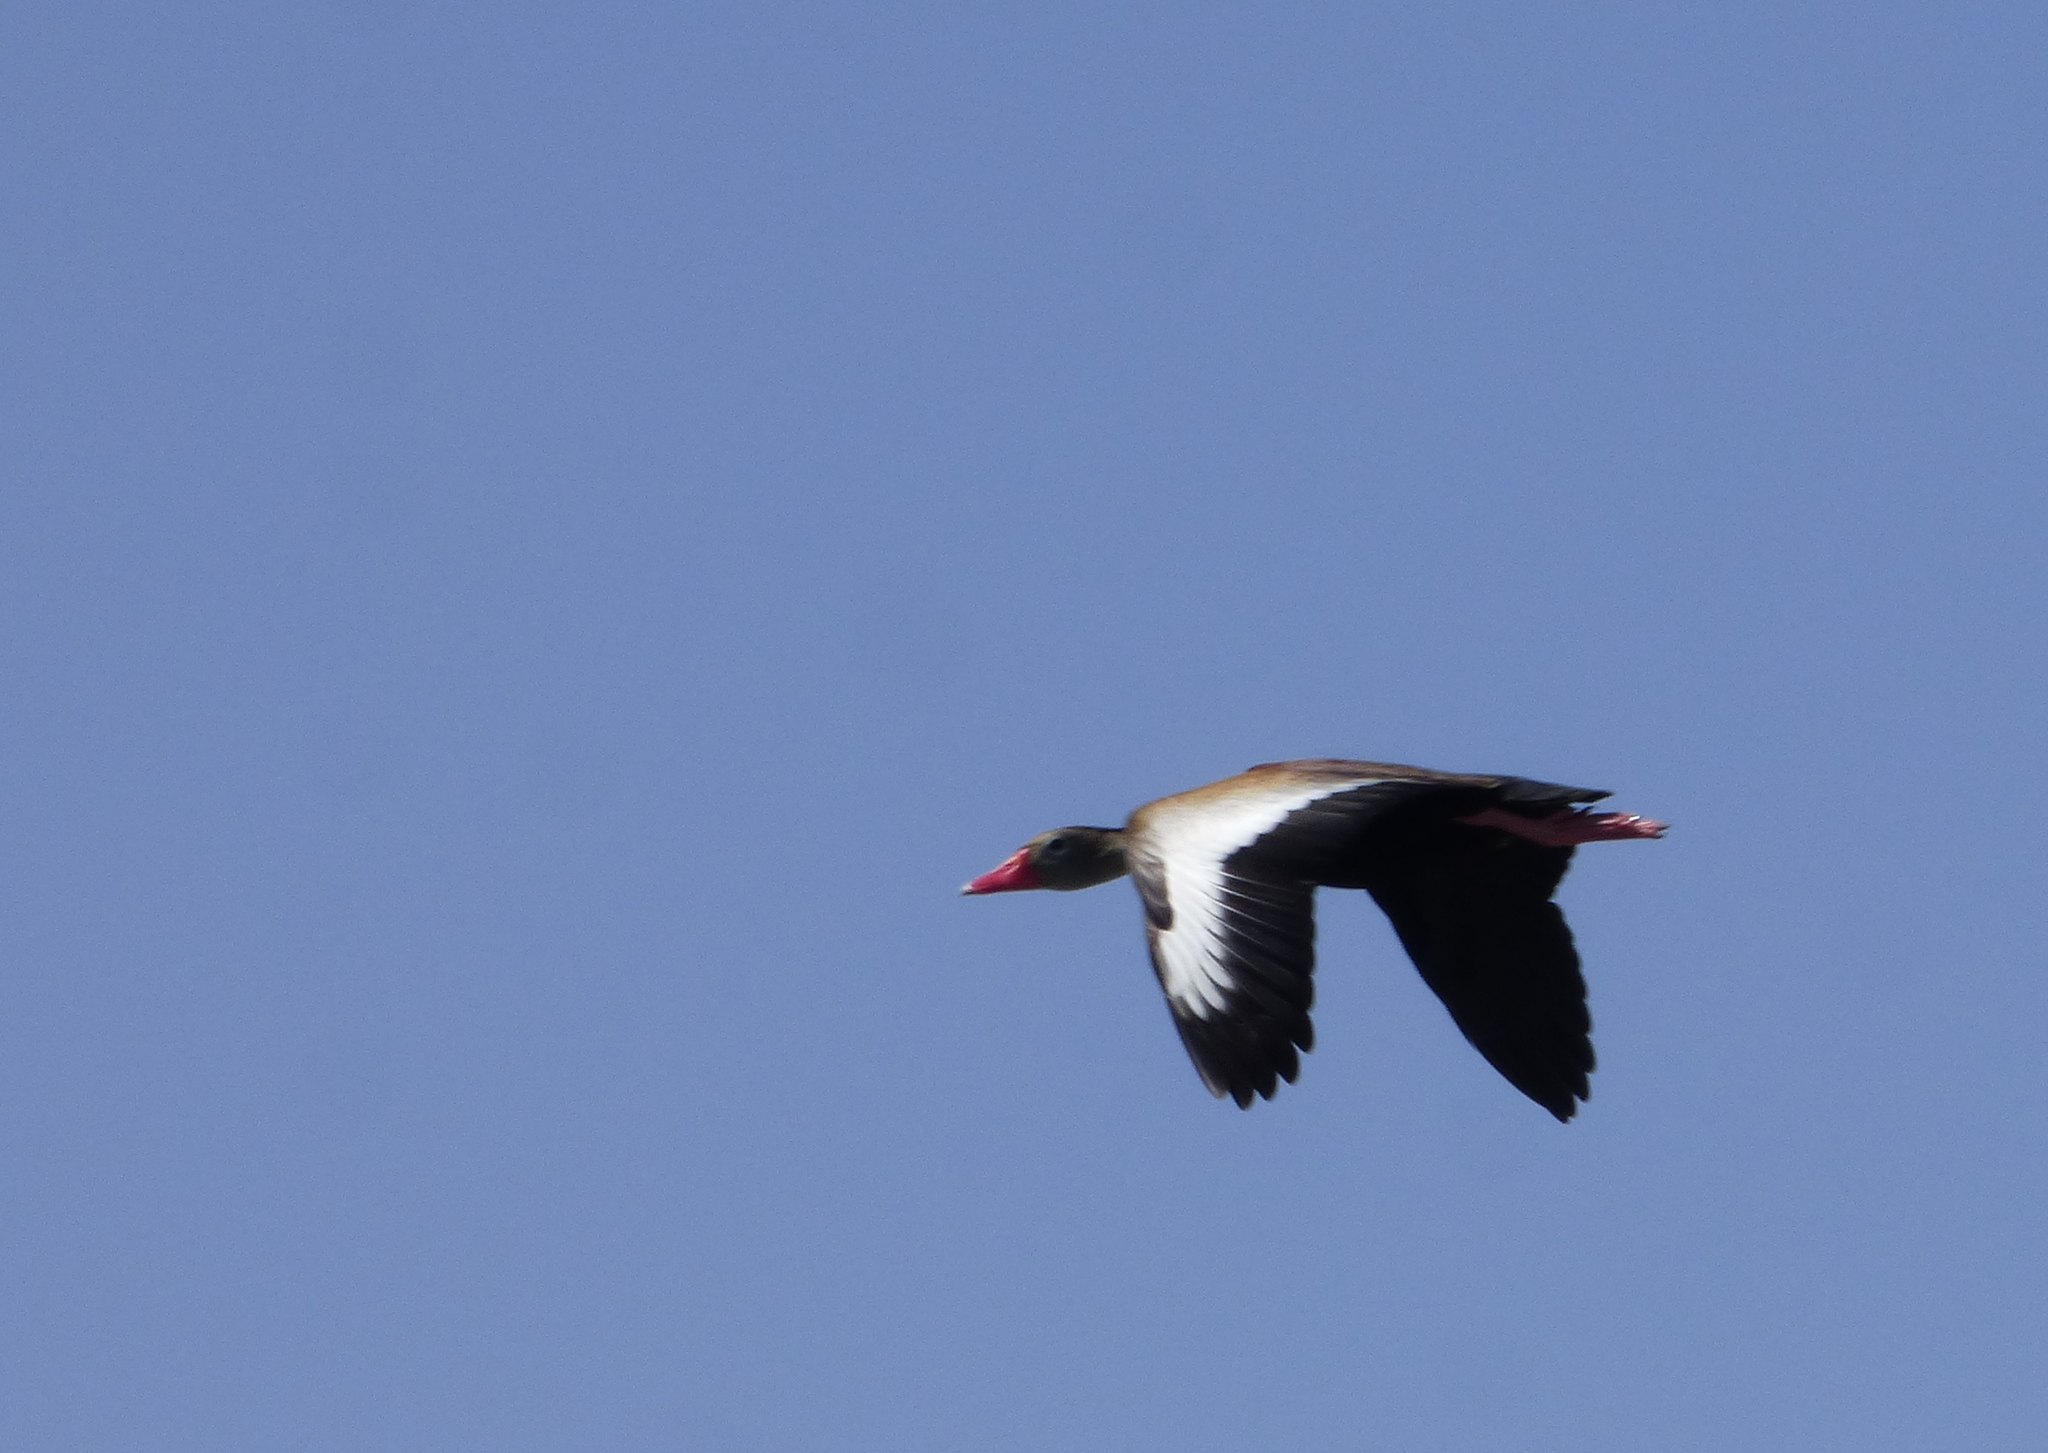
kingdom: Animalia
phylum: Chordata
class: Aves
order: Anseriformes
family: Anatidae
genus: Dendrocygna
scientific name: Dendrocygna autumnalis
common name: Black-bellied whistling duck
